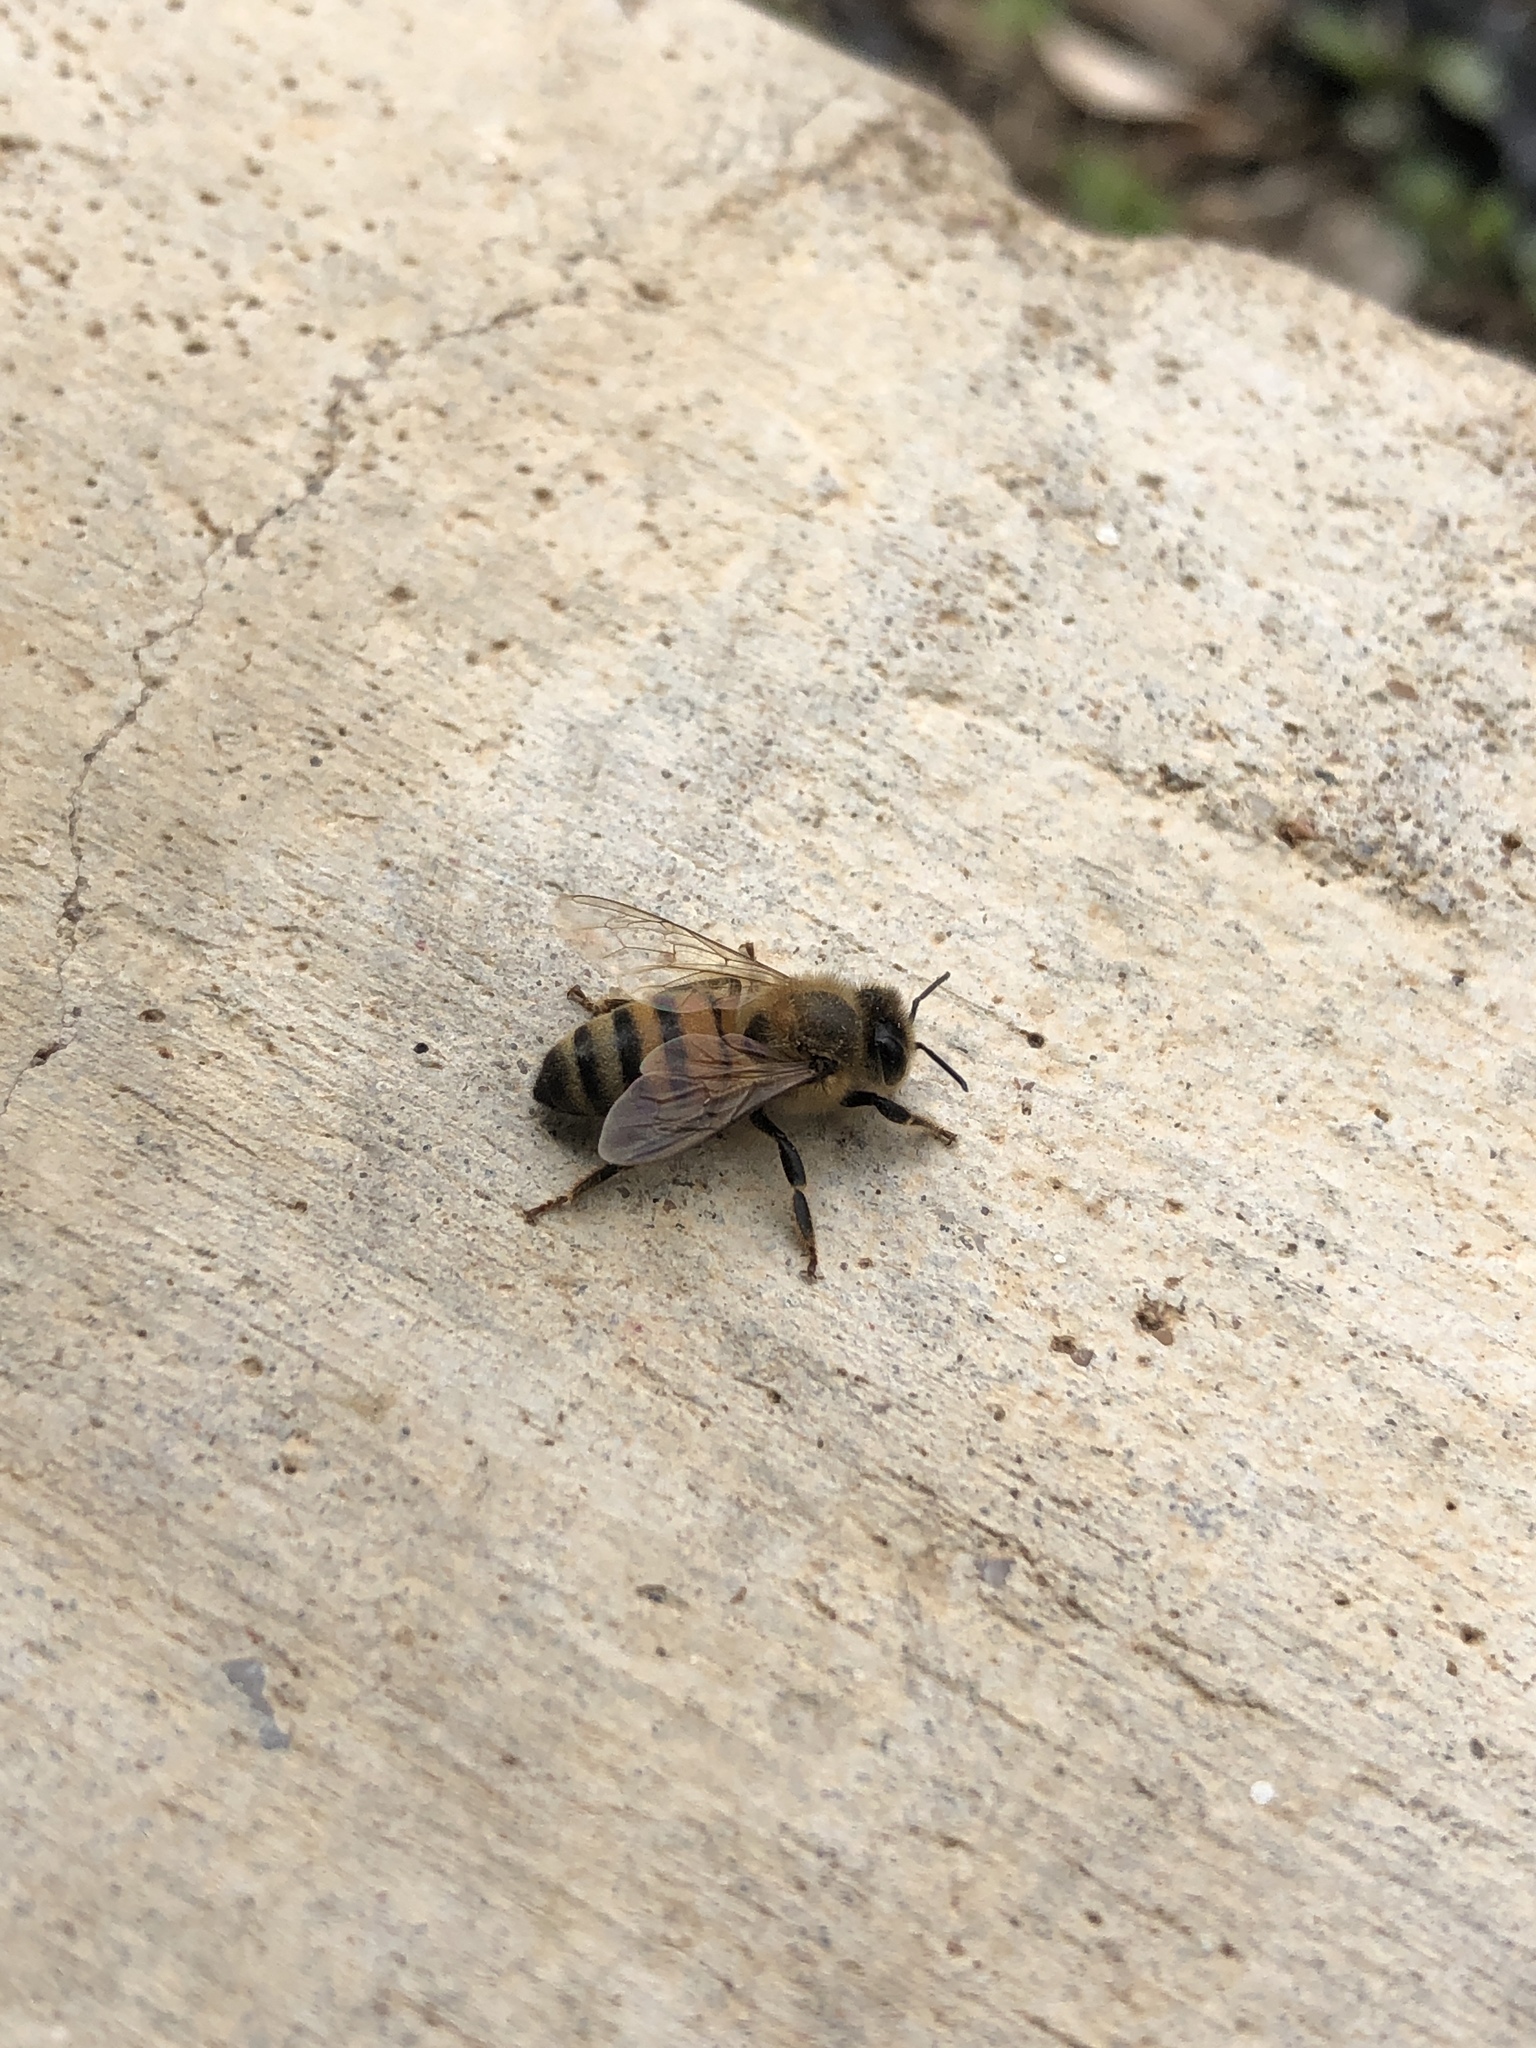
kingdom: Animalia
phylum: Arthropoda
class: Insecta
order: Hymenoptera
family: Apidae
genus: Apis
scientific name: Apis mellifera
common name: Honey bee
